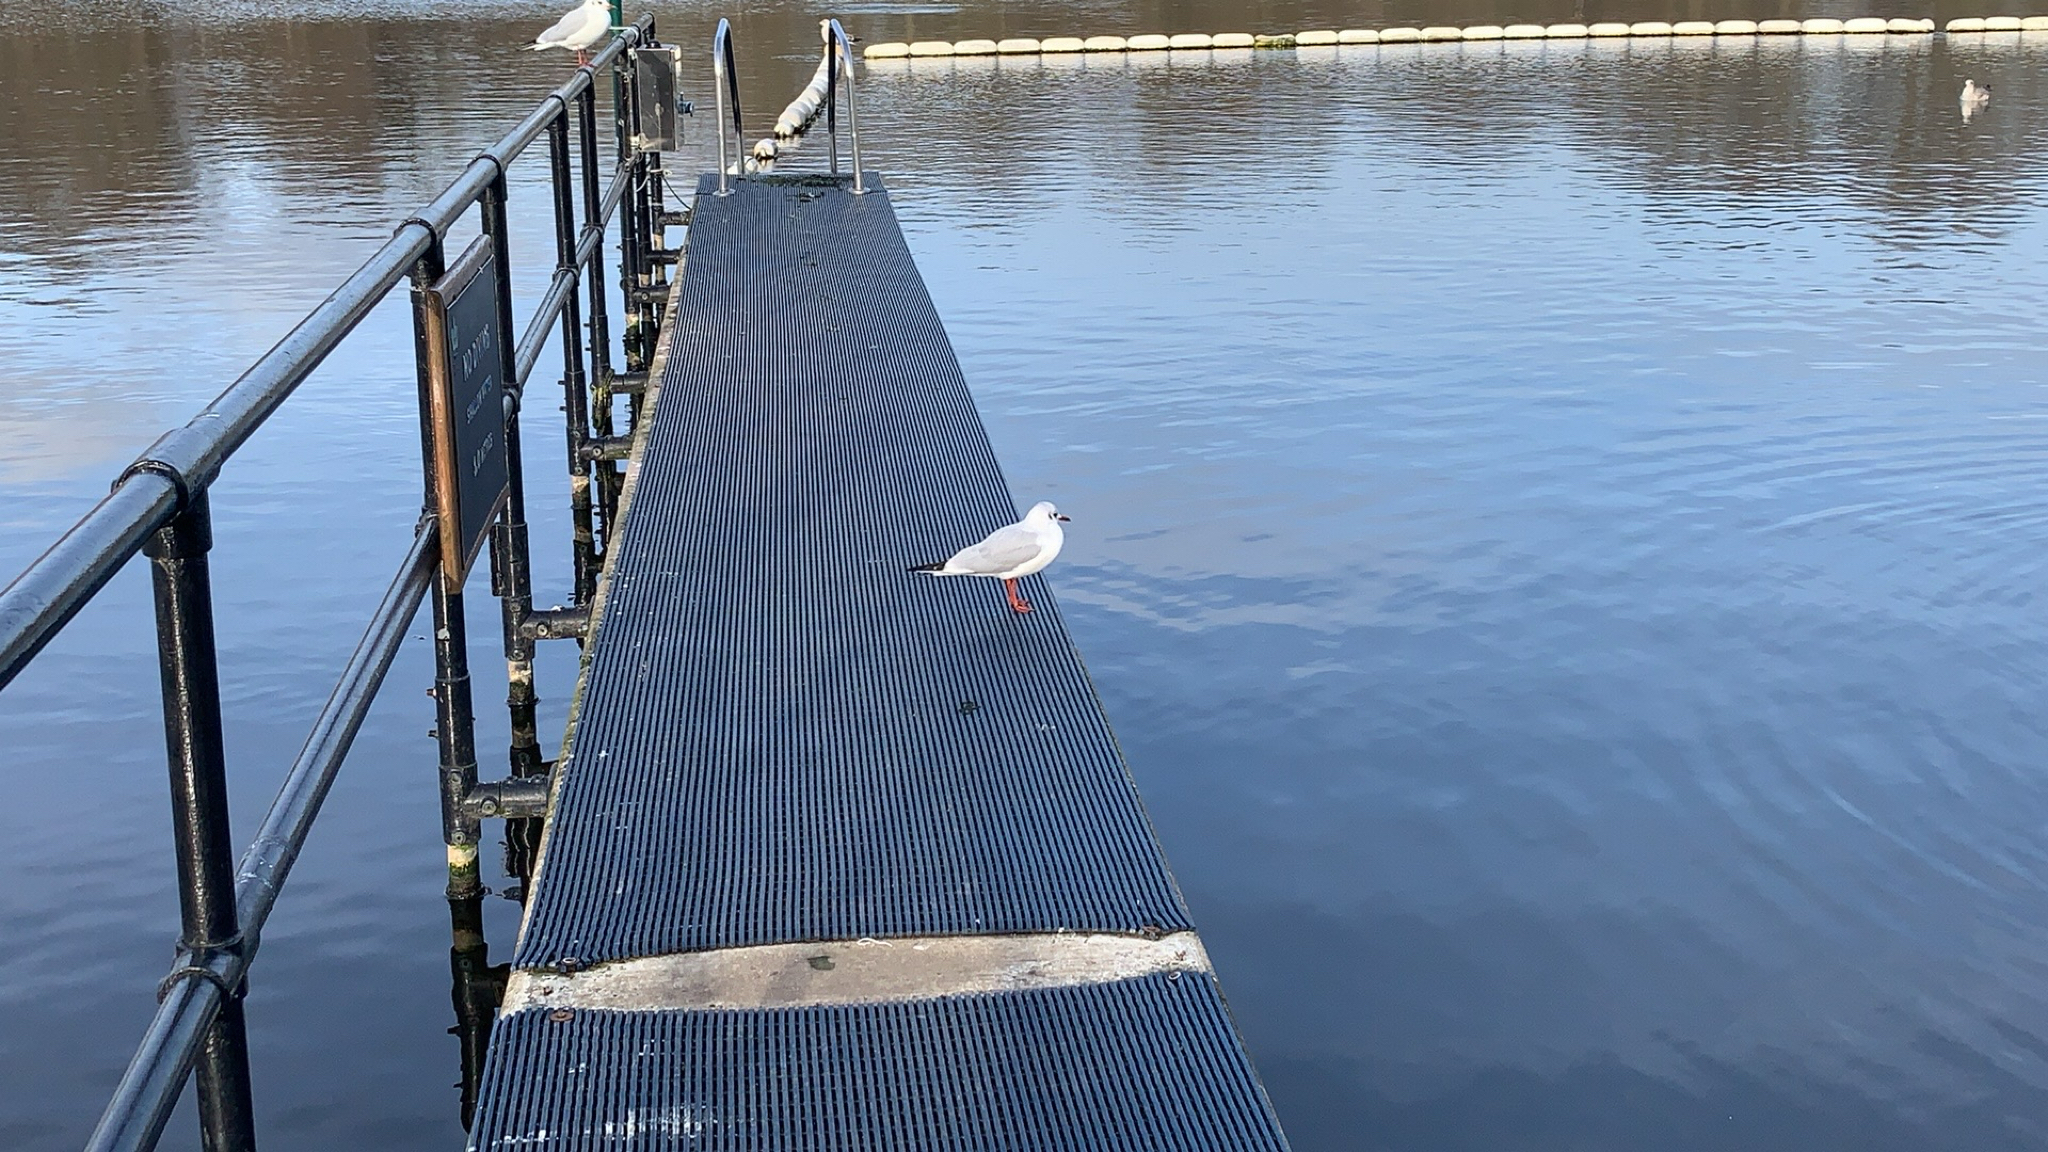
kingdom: Animalia
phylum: Chordata
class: Aves
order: Charadriiformes
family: Laridae
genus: Chroicocephalus
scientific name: Chroicocephalus ridibundus
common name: Black-headed gull
